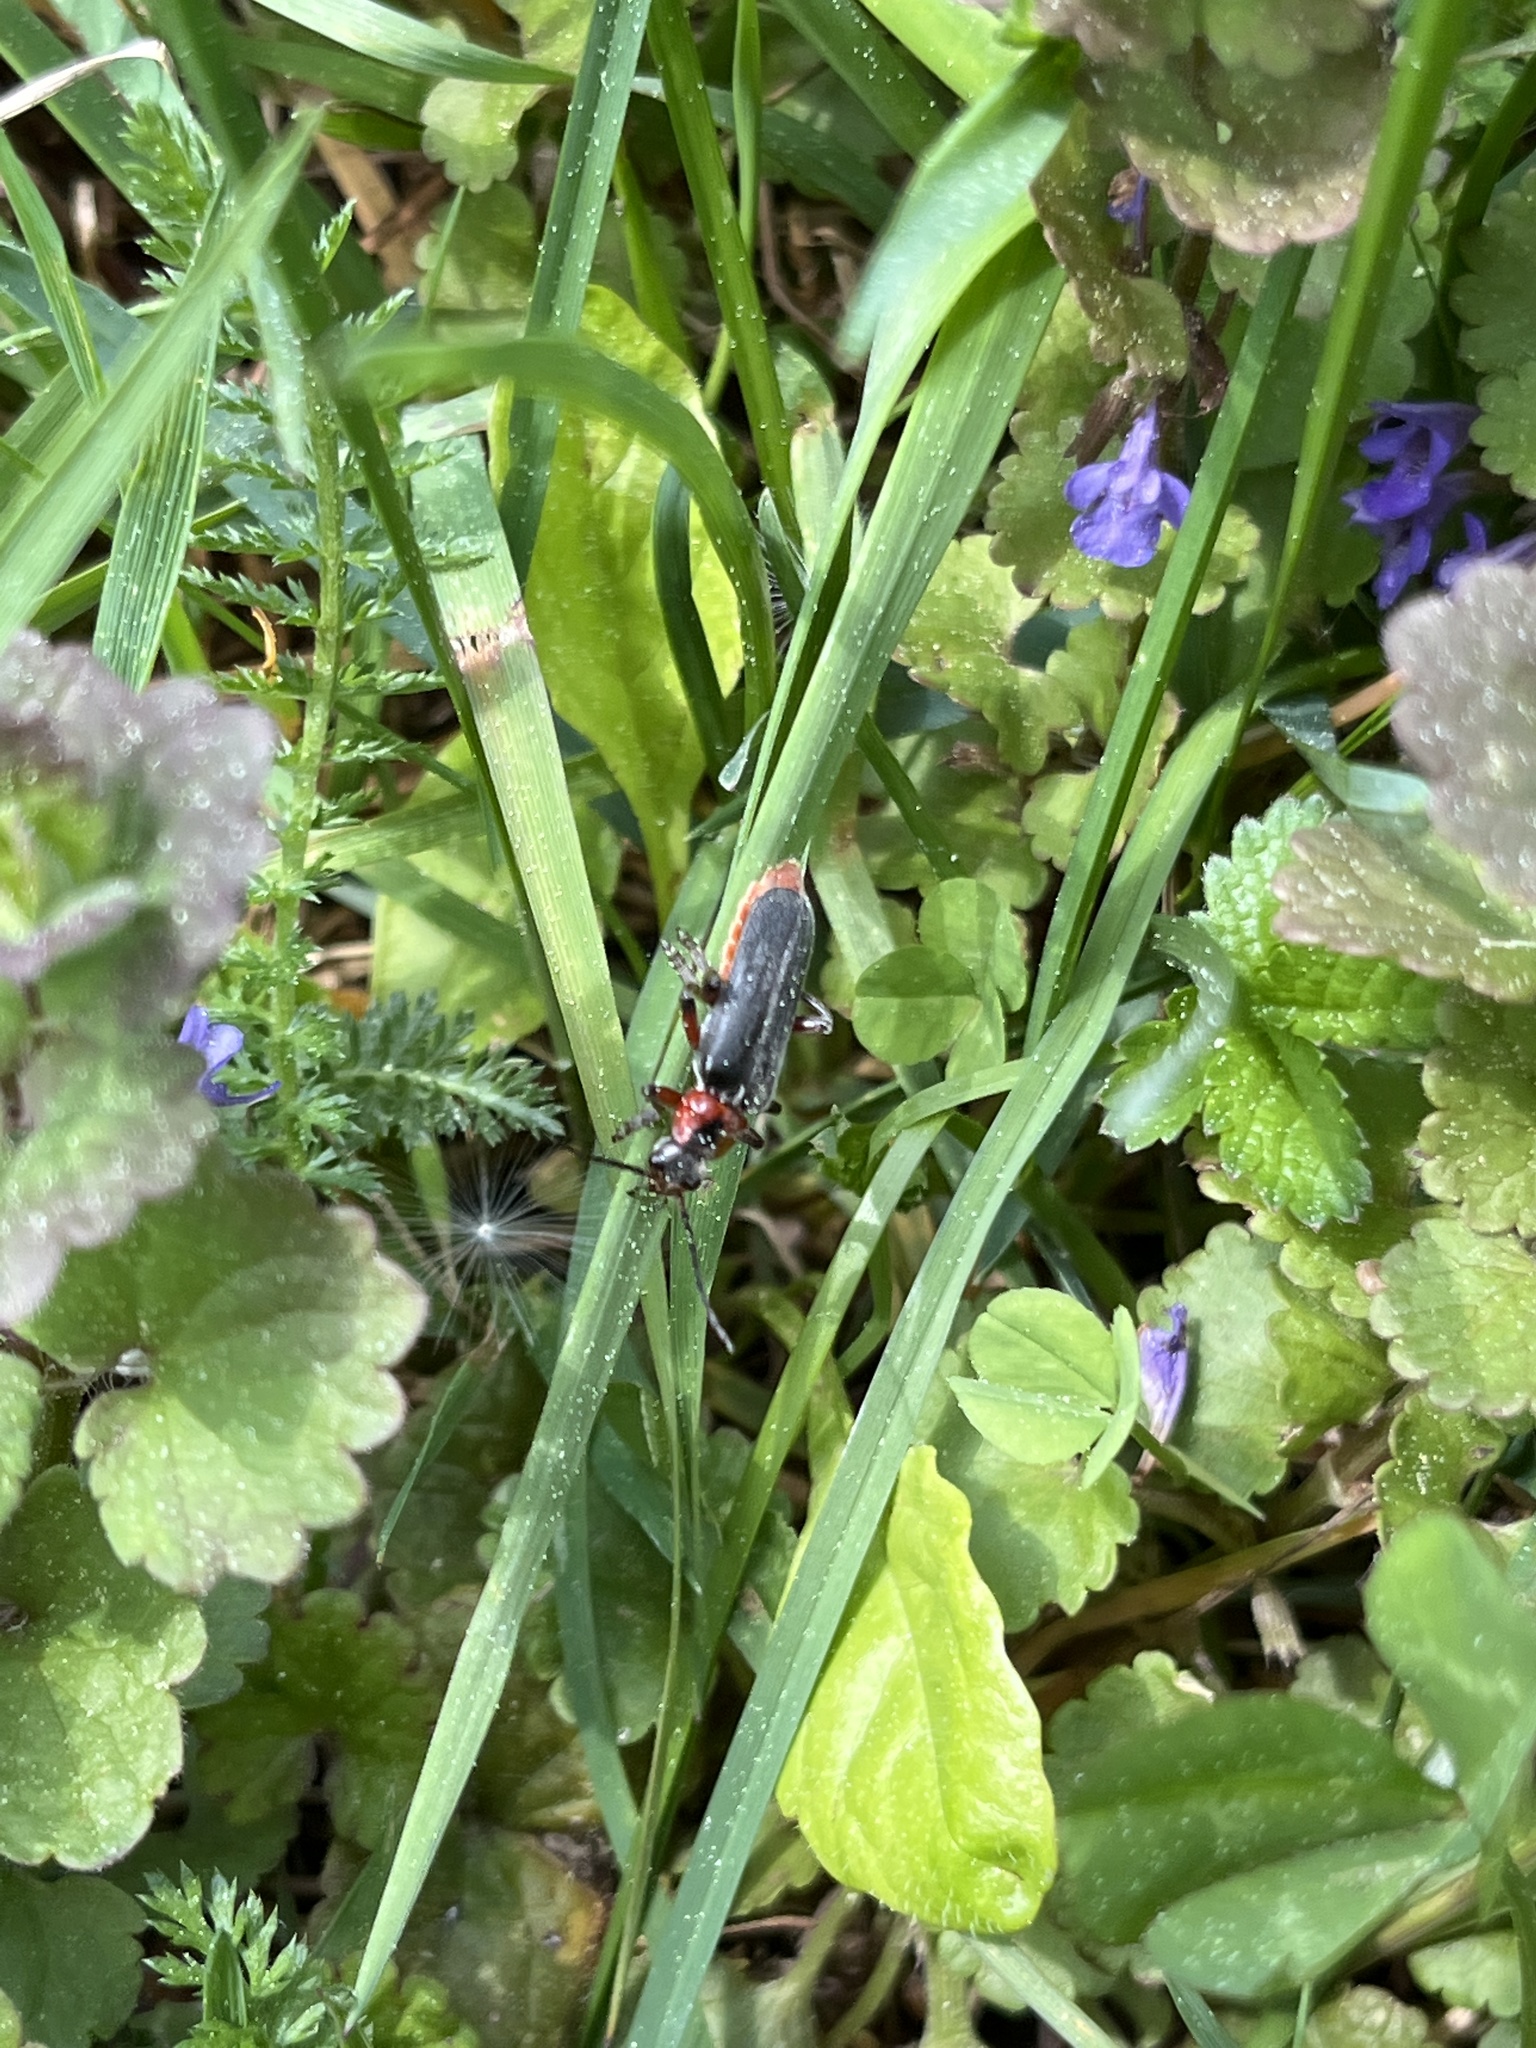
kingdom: Animalia
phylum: Arthropoda
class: Insecta
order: Coleoptera
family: Cantharidae
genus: Cantharis
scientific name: Cantharis rustica
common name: Soldier beetle
